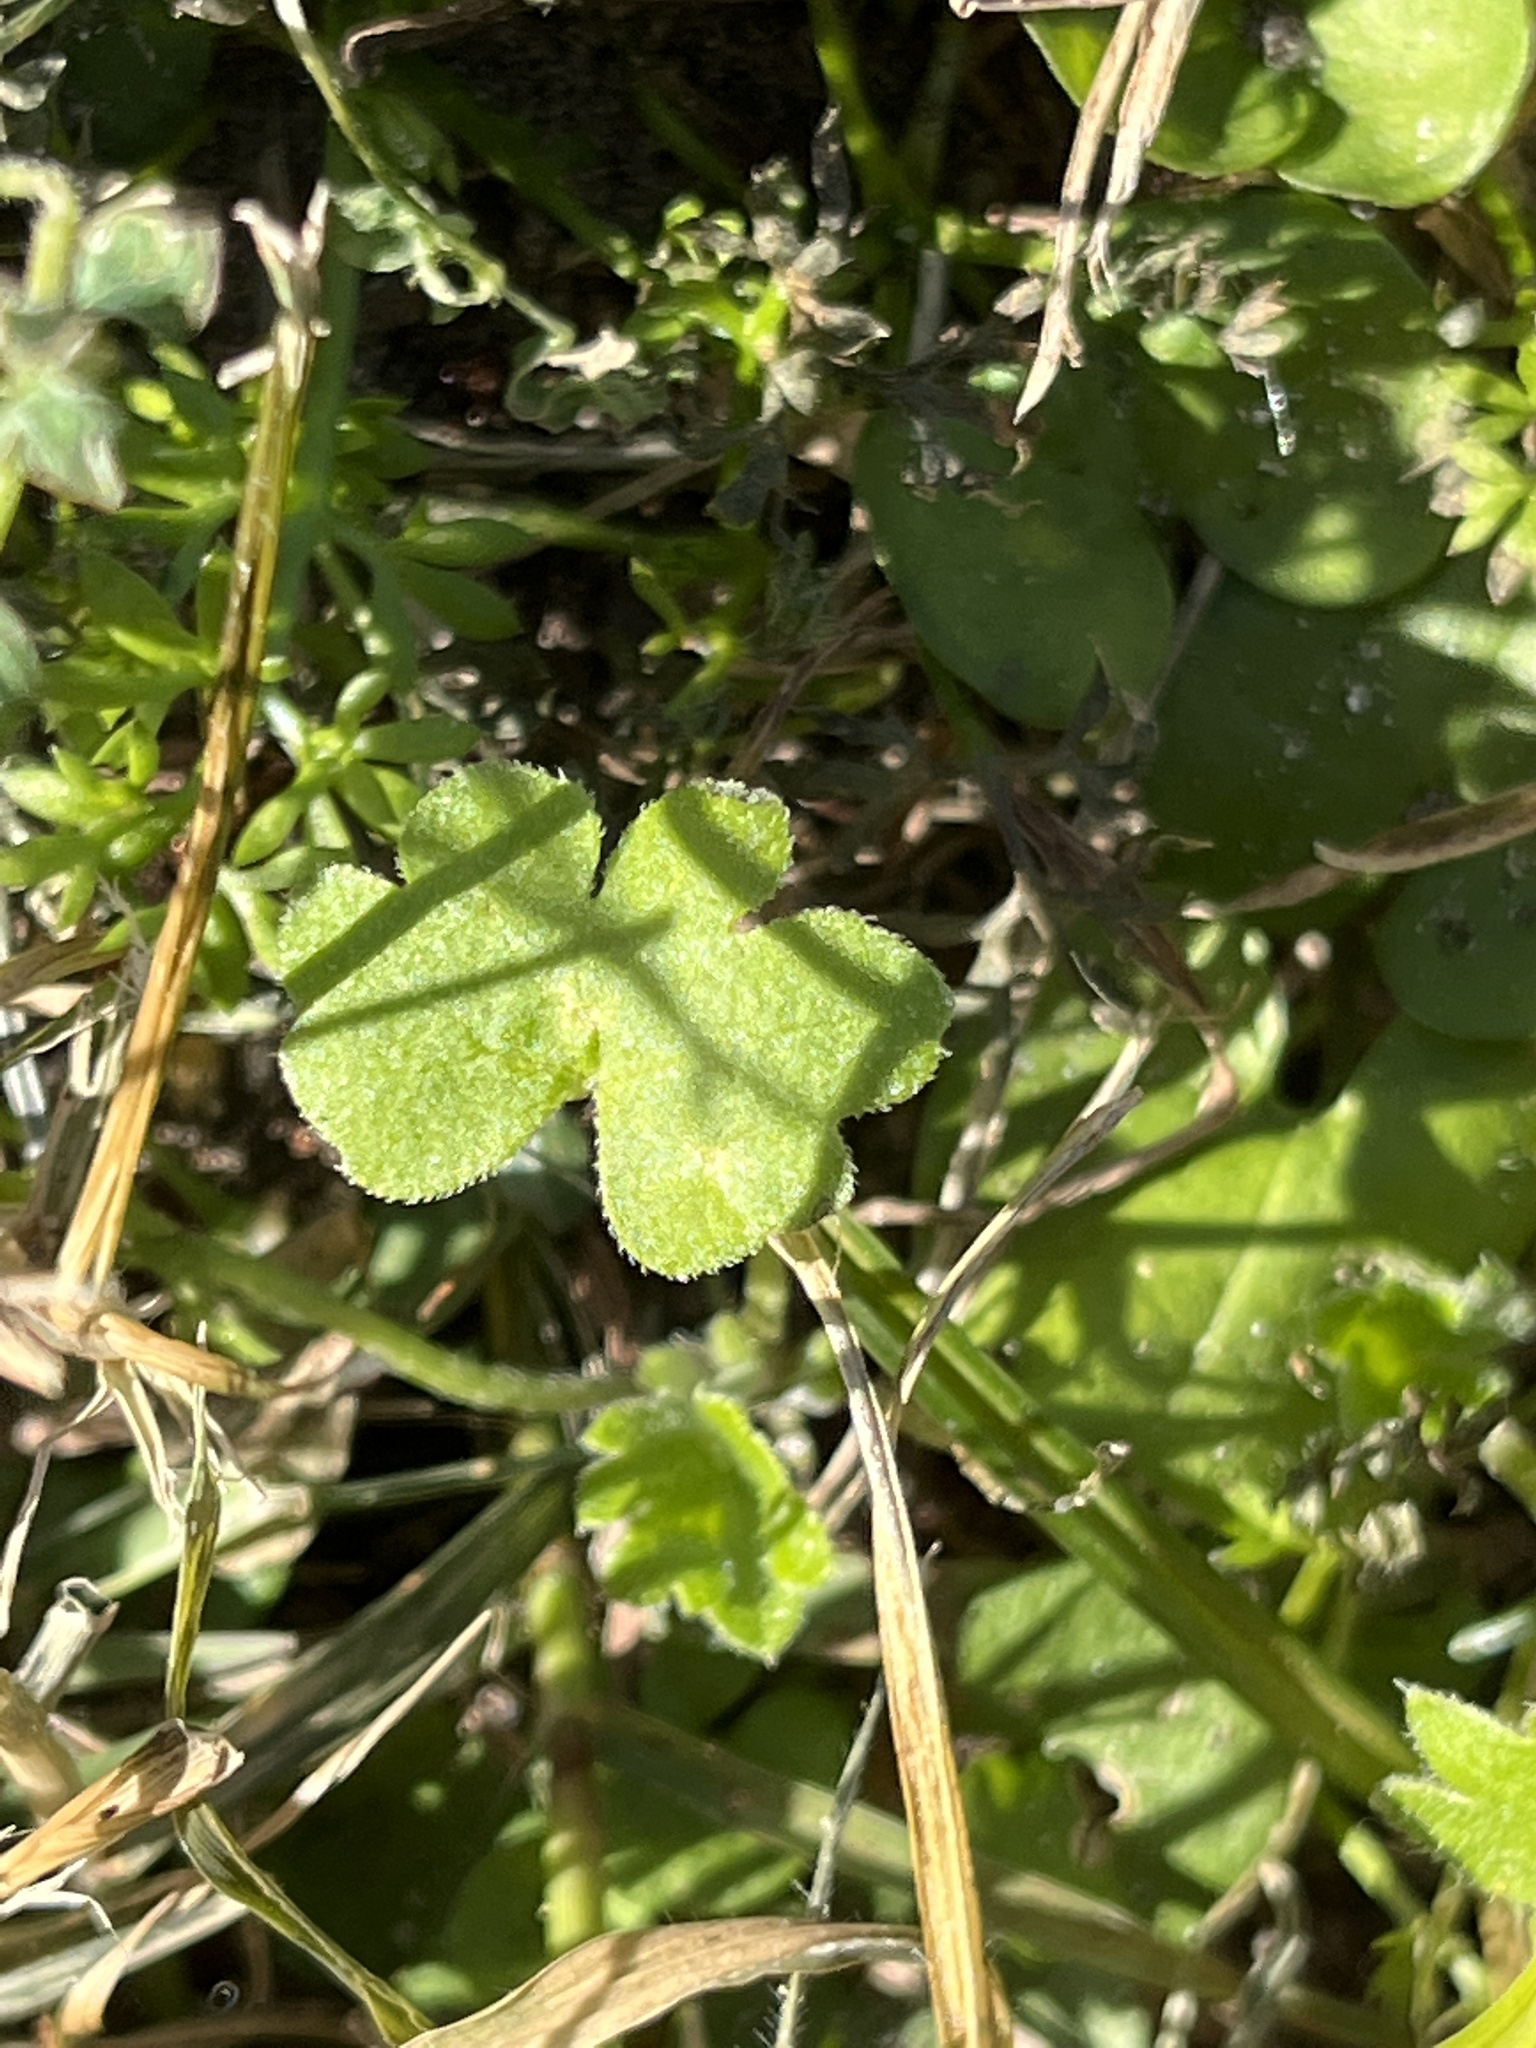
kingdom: Plantae
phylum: Tracheophyta
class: Magnoliopsida
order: Apiales
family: Apiaceae
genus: Bowlesia
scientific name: Bowlesia incana
